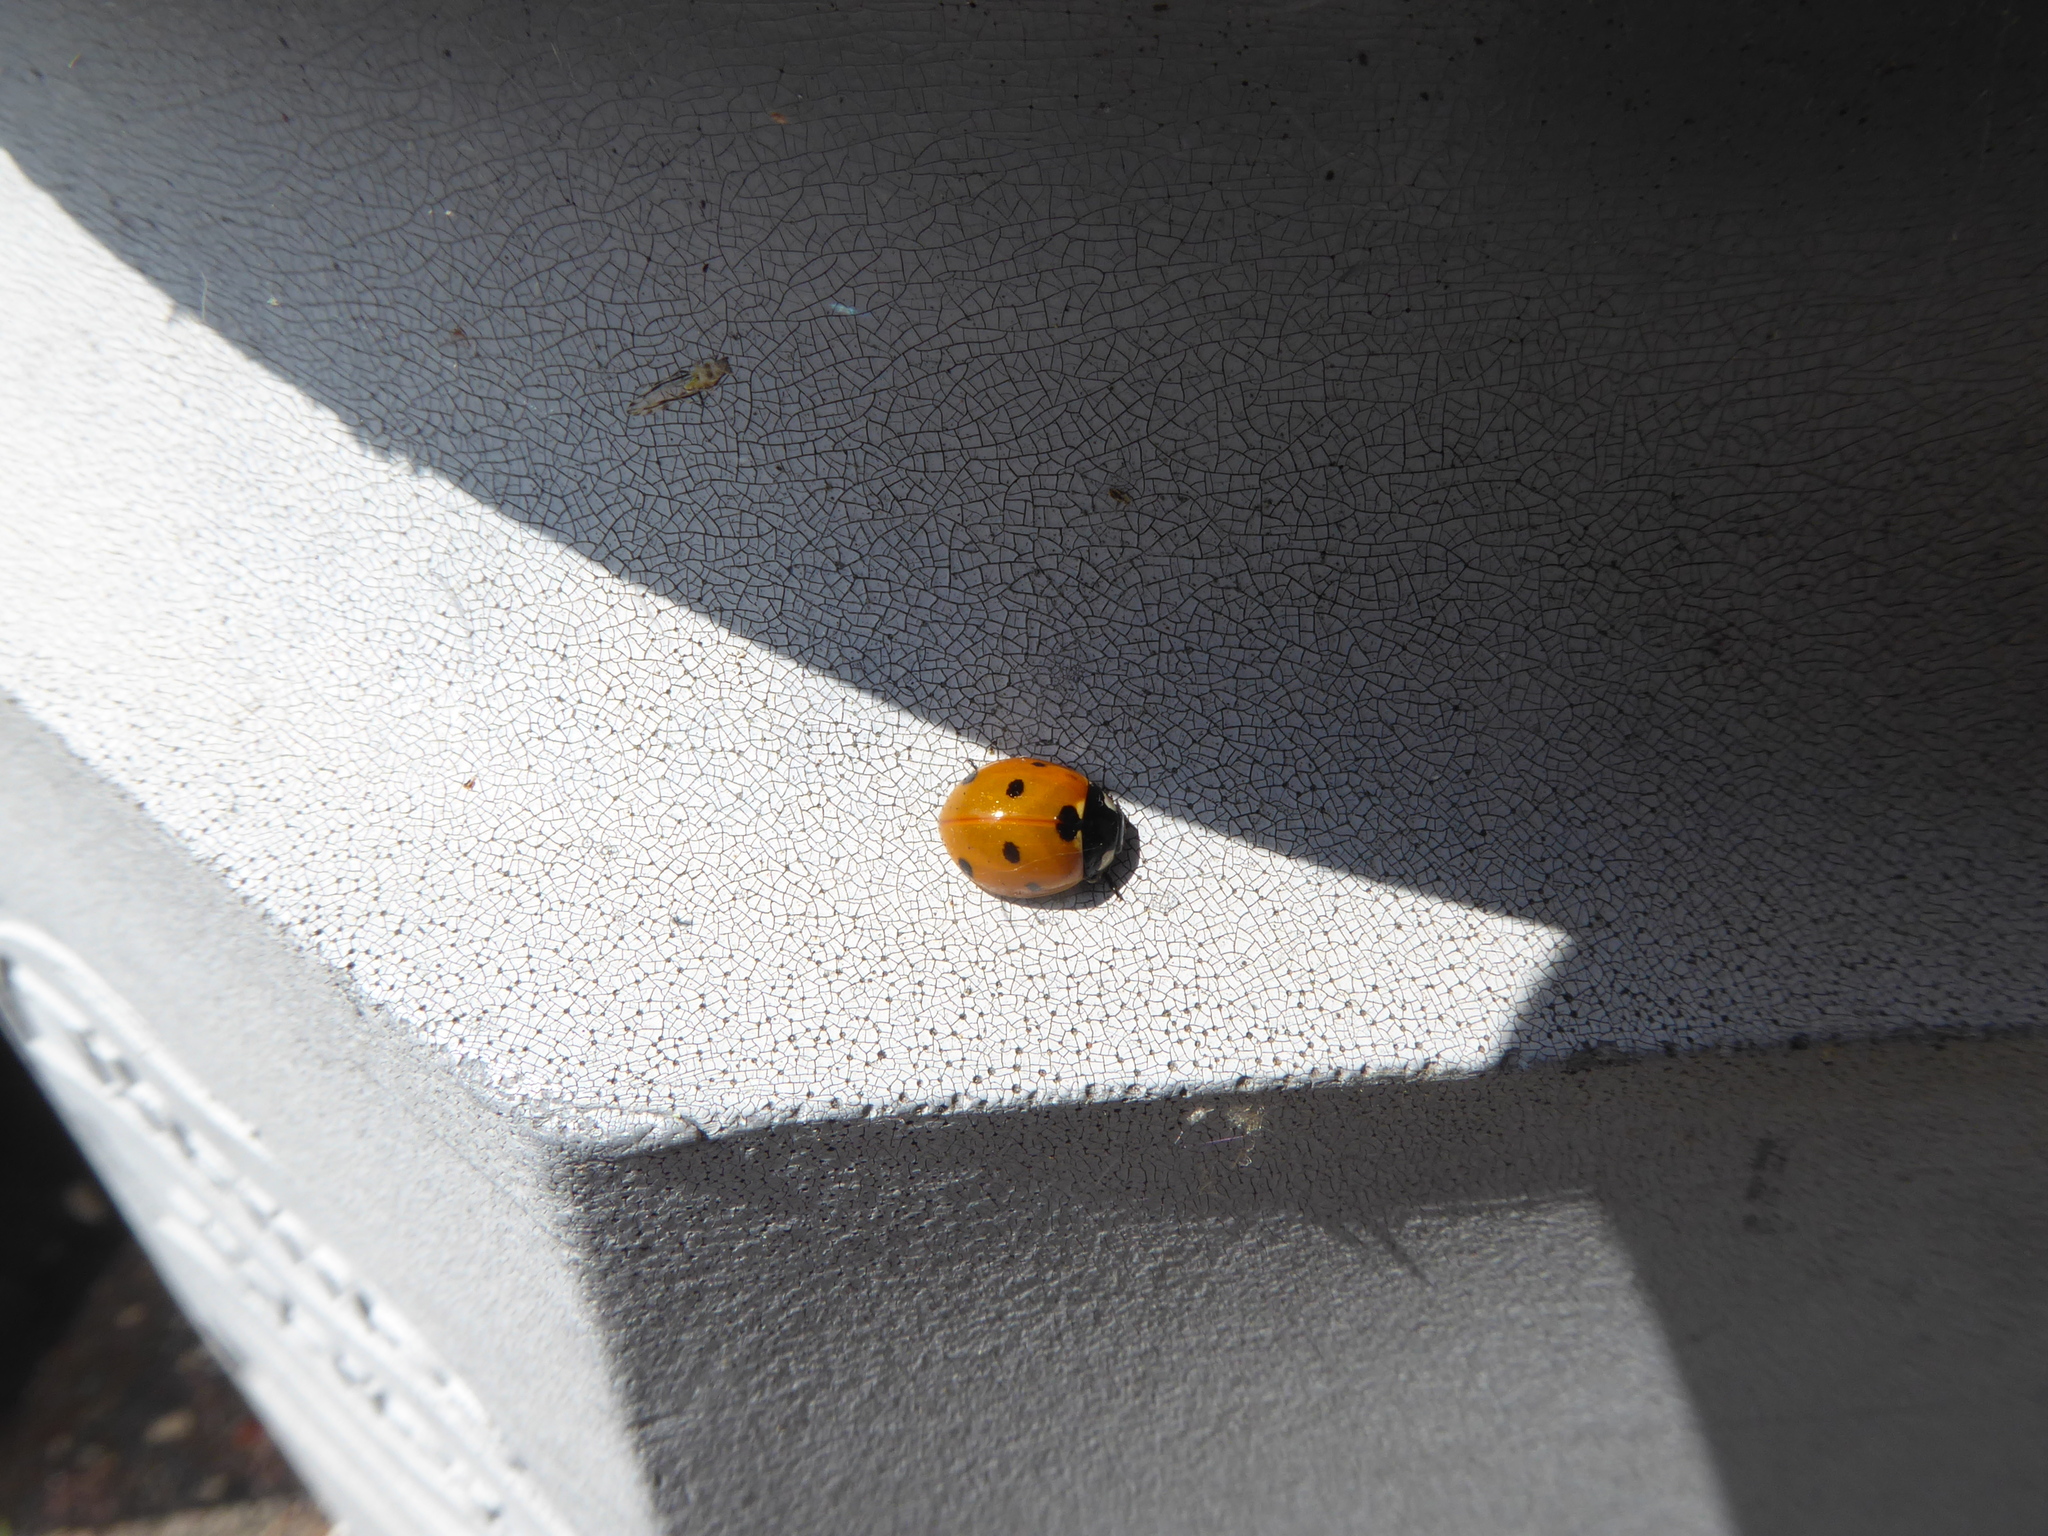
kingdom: Animalia
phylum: Arthropoda
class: Insecta
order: Coleoptera
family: Coccinellidae
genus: Coccinella
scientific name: Coccinella septempunctata
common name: Sevenspotted lady beetle
